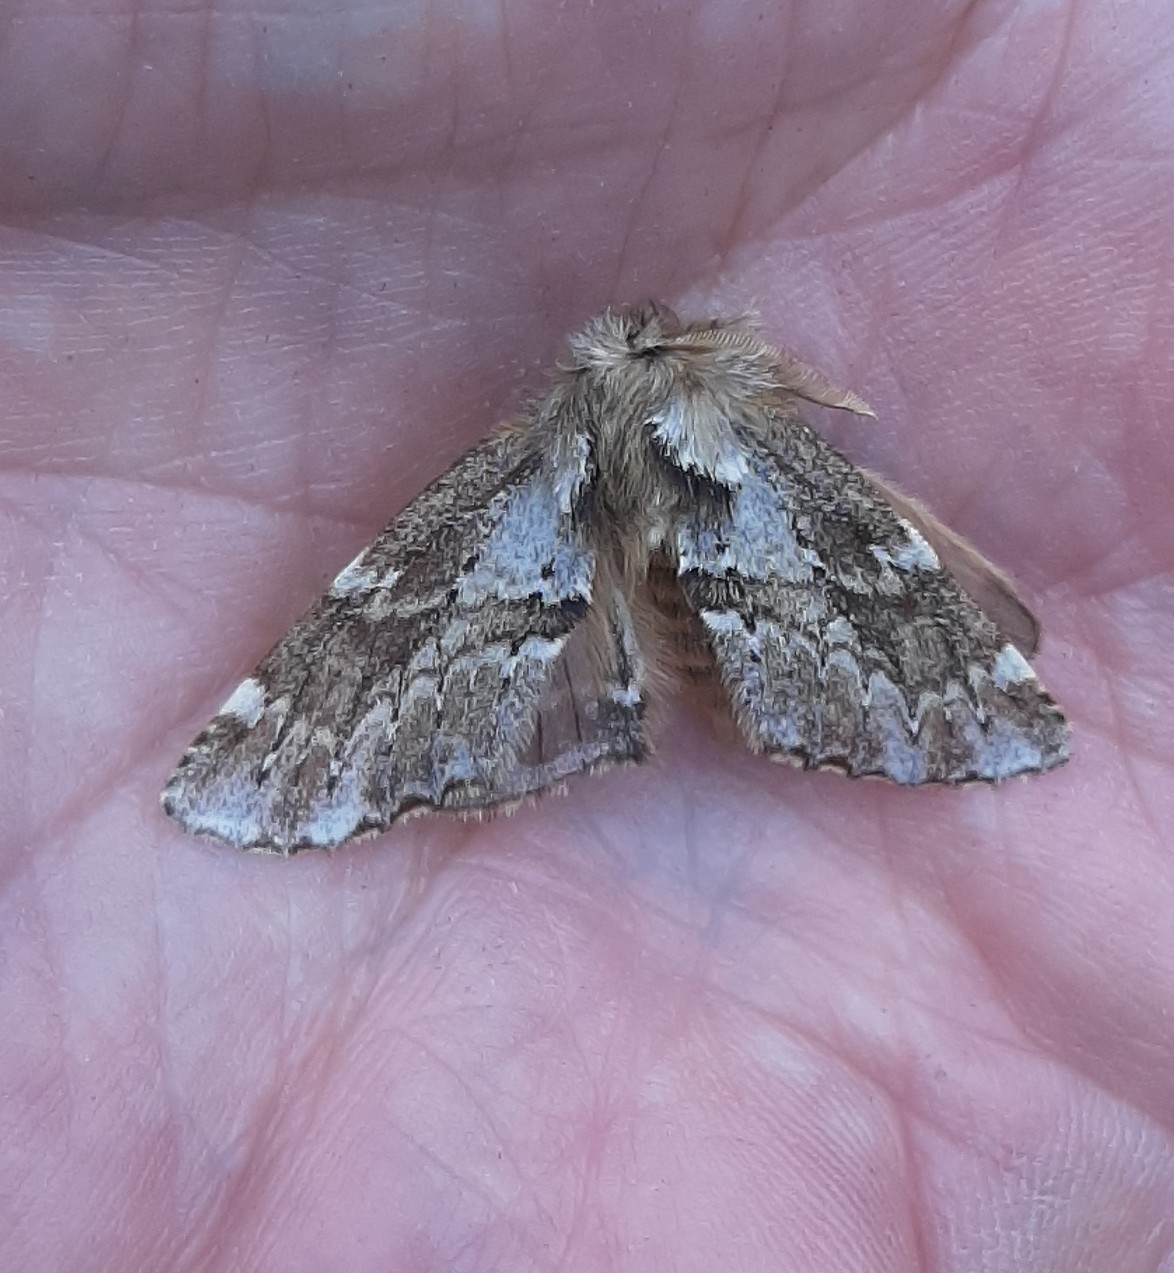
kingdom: Animalia
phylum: Arthropoda
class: Insecta
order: Lepidoptera
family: Notodontidae
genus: Odontosia
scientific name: Odontosia sieversii
